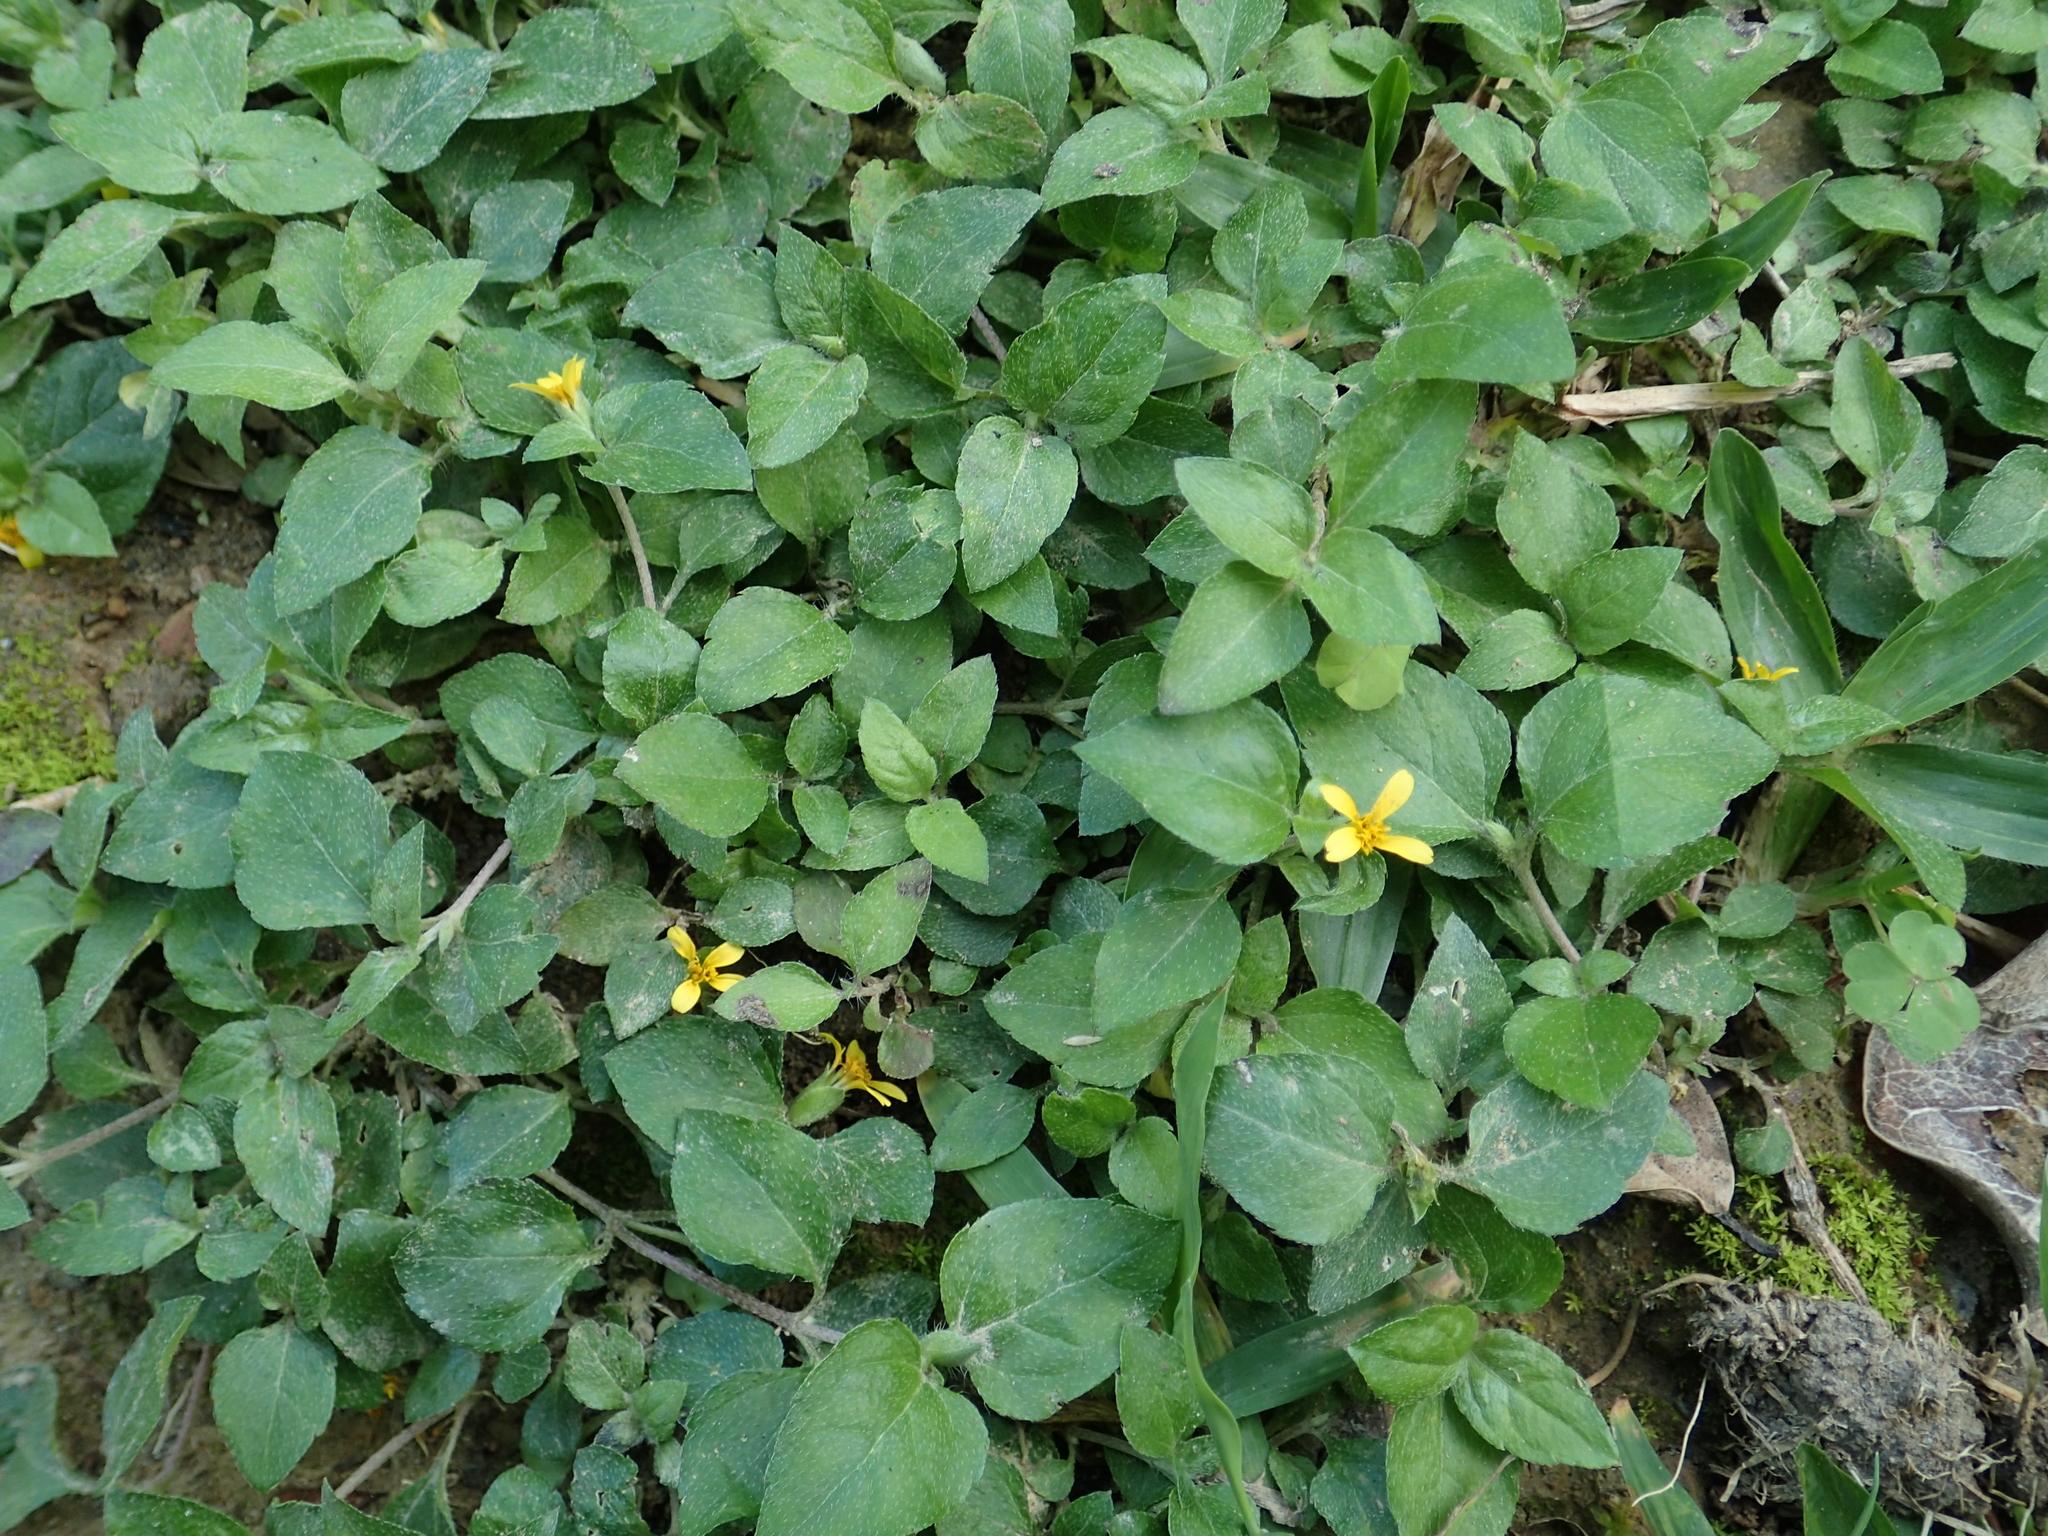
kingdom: Plantae
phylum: Tracheophyta
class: Magnoliopsida
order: Asterales
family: Asteraceae
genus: Calyptocarpus
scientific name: Calyptocarpus vialis
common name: Straggler daisy
